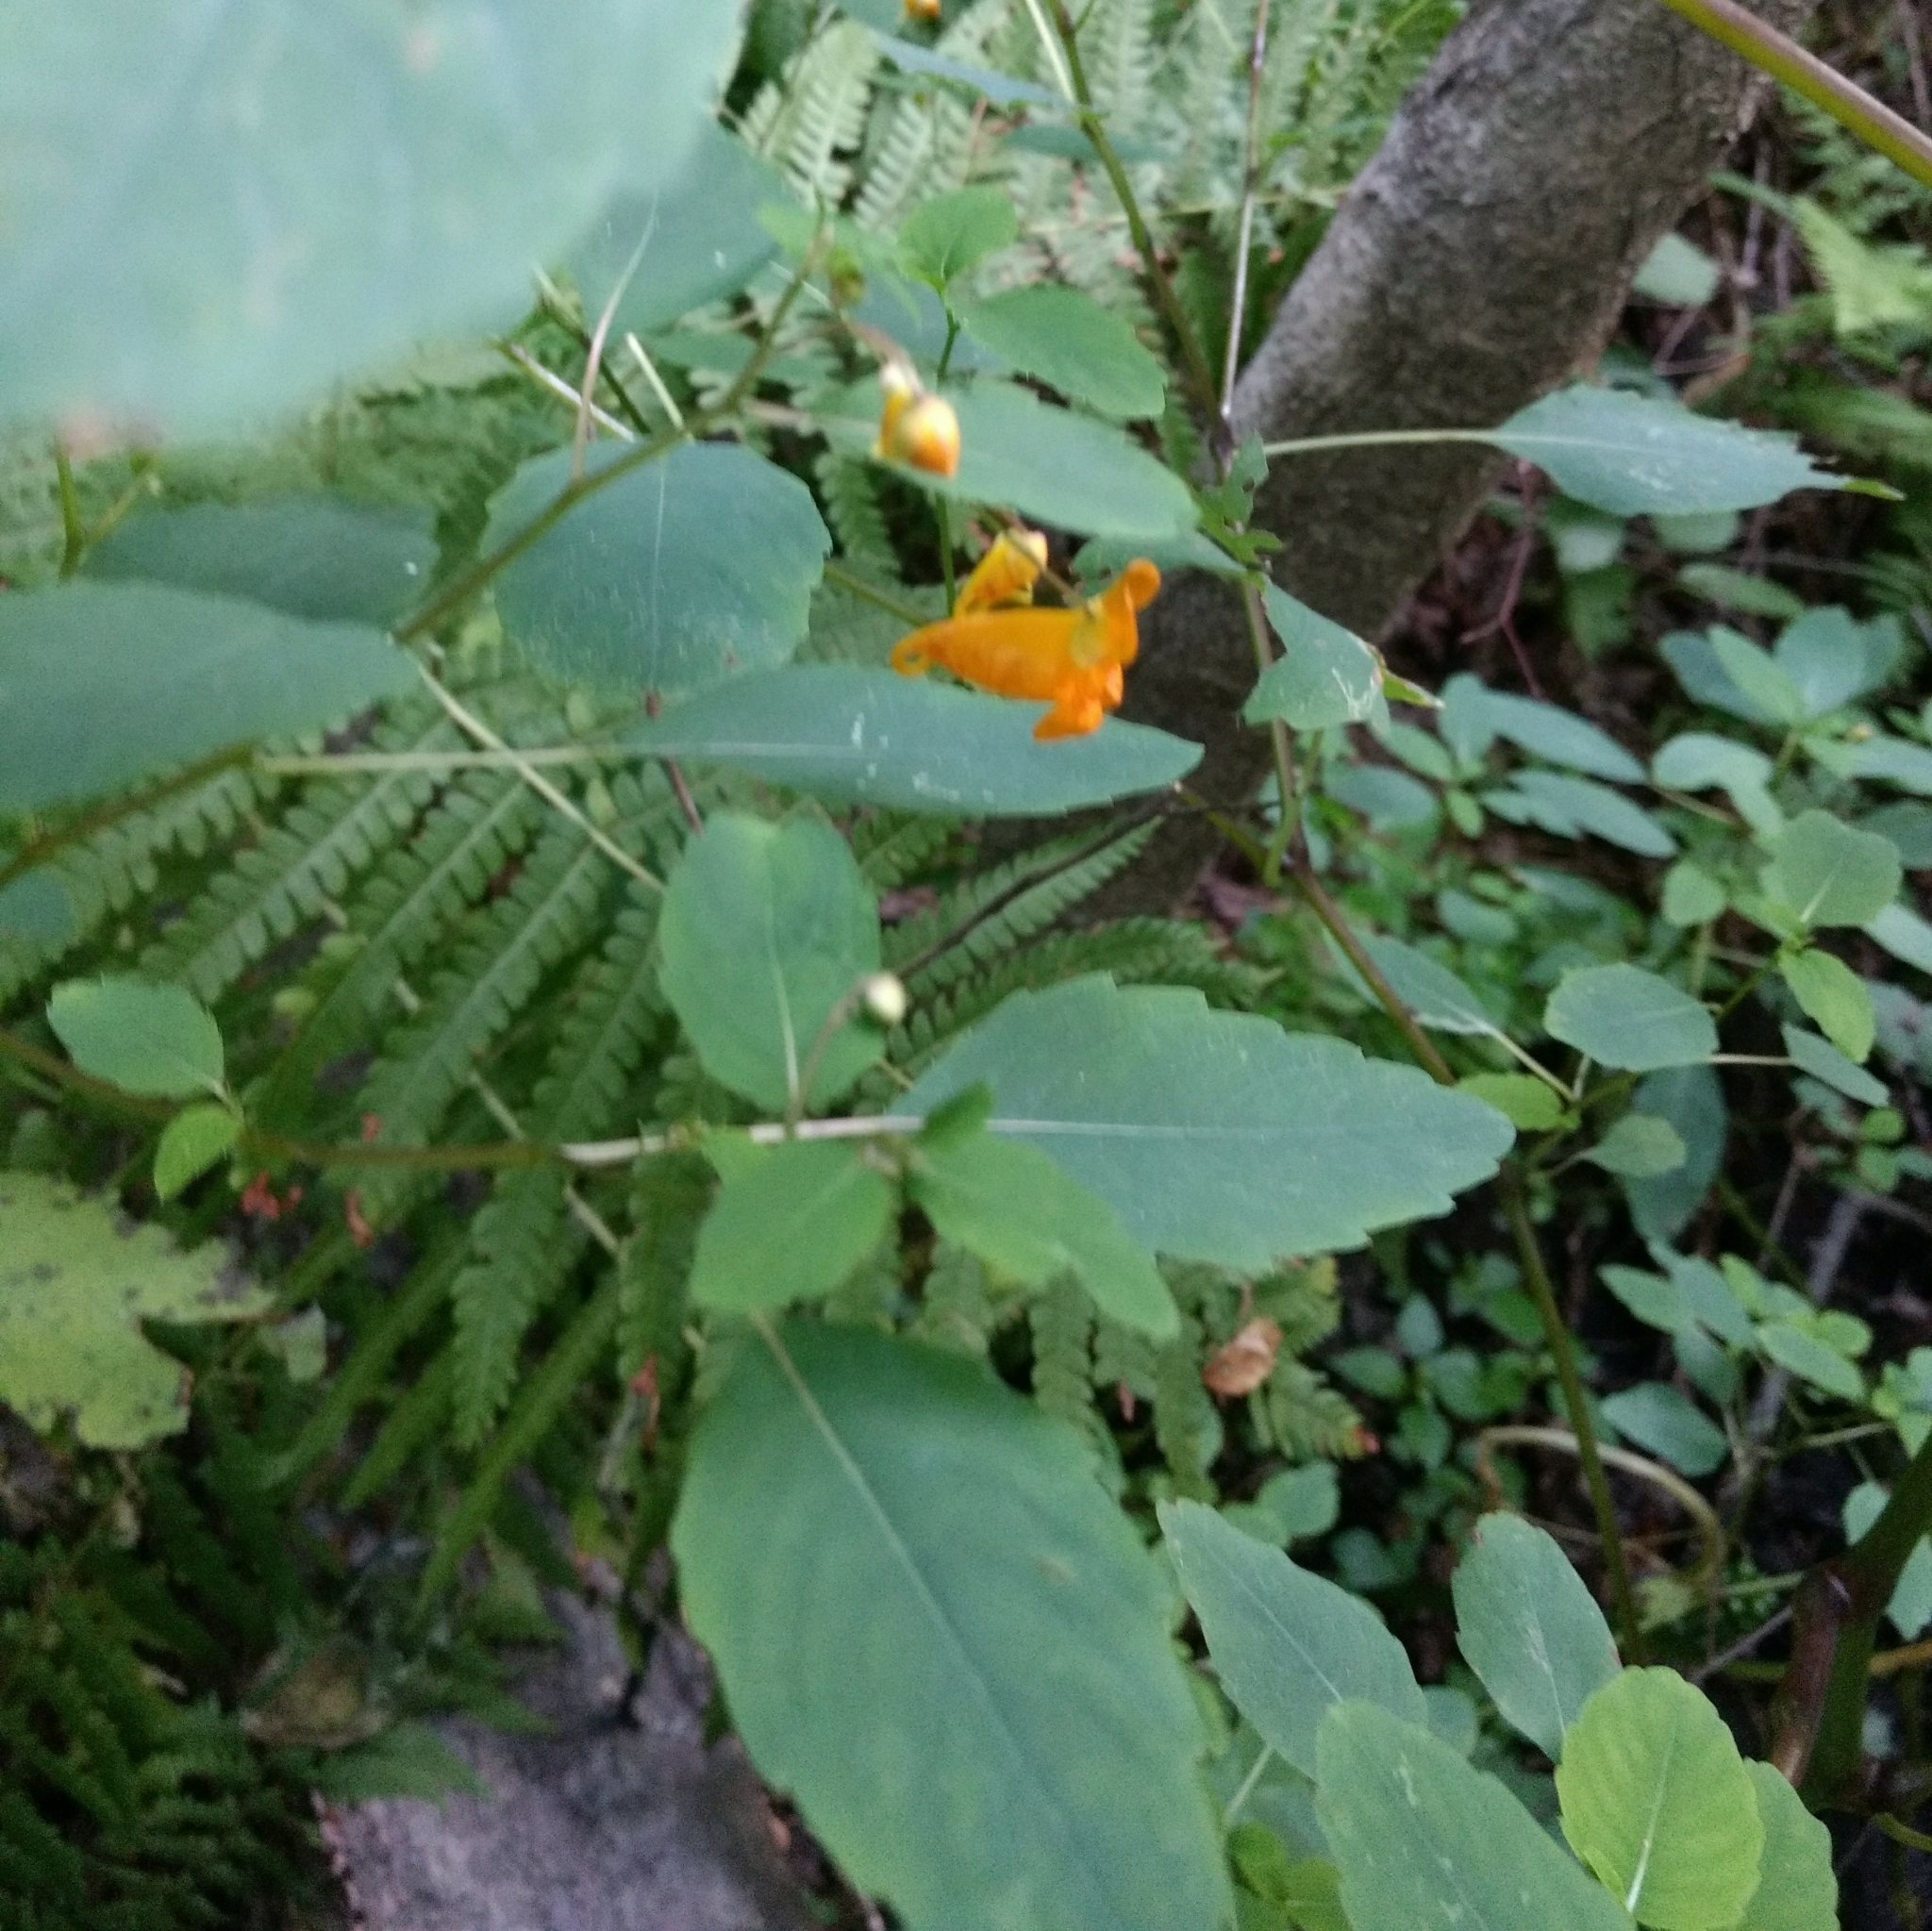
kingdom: Plantae
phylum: Tracheophyta
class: Magnoliopsida
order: Ericales
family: Balsaminaceae
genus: Impatiens
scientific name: Impatiens capensis
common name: Orange balsam
